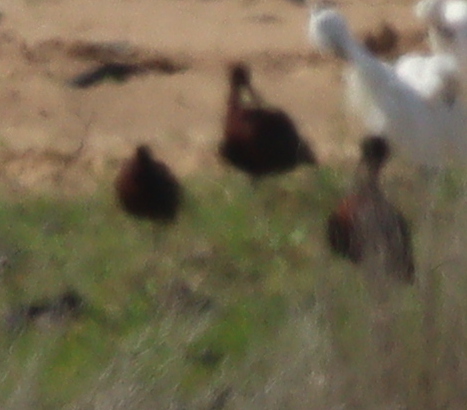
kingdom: Animalia
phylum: Chordata
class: Aves
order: Pelecaniformes
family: Threskiornithidae
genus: Plegadis
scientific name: Plegadis falcinellus
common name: Glossy ibis
